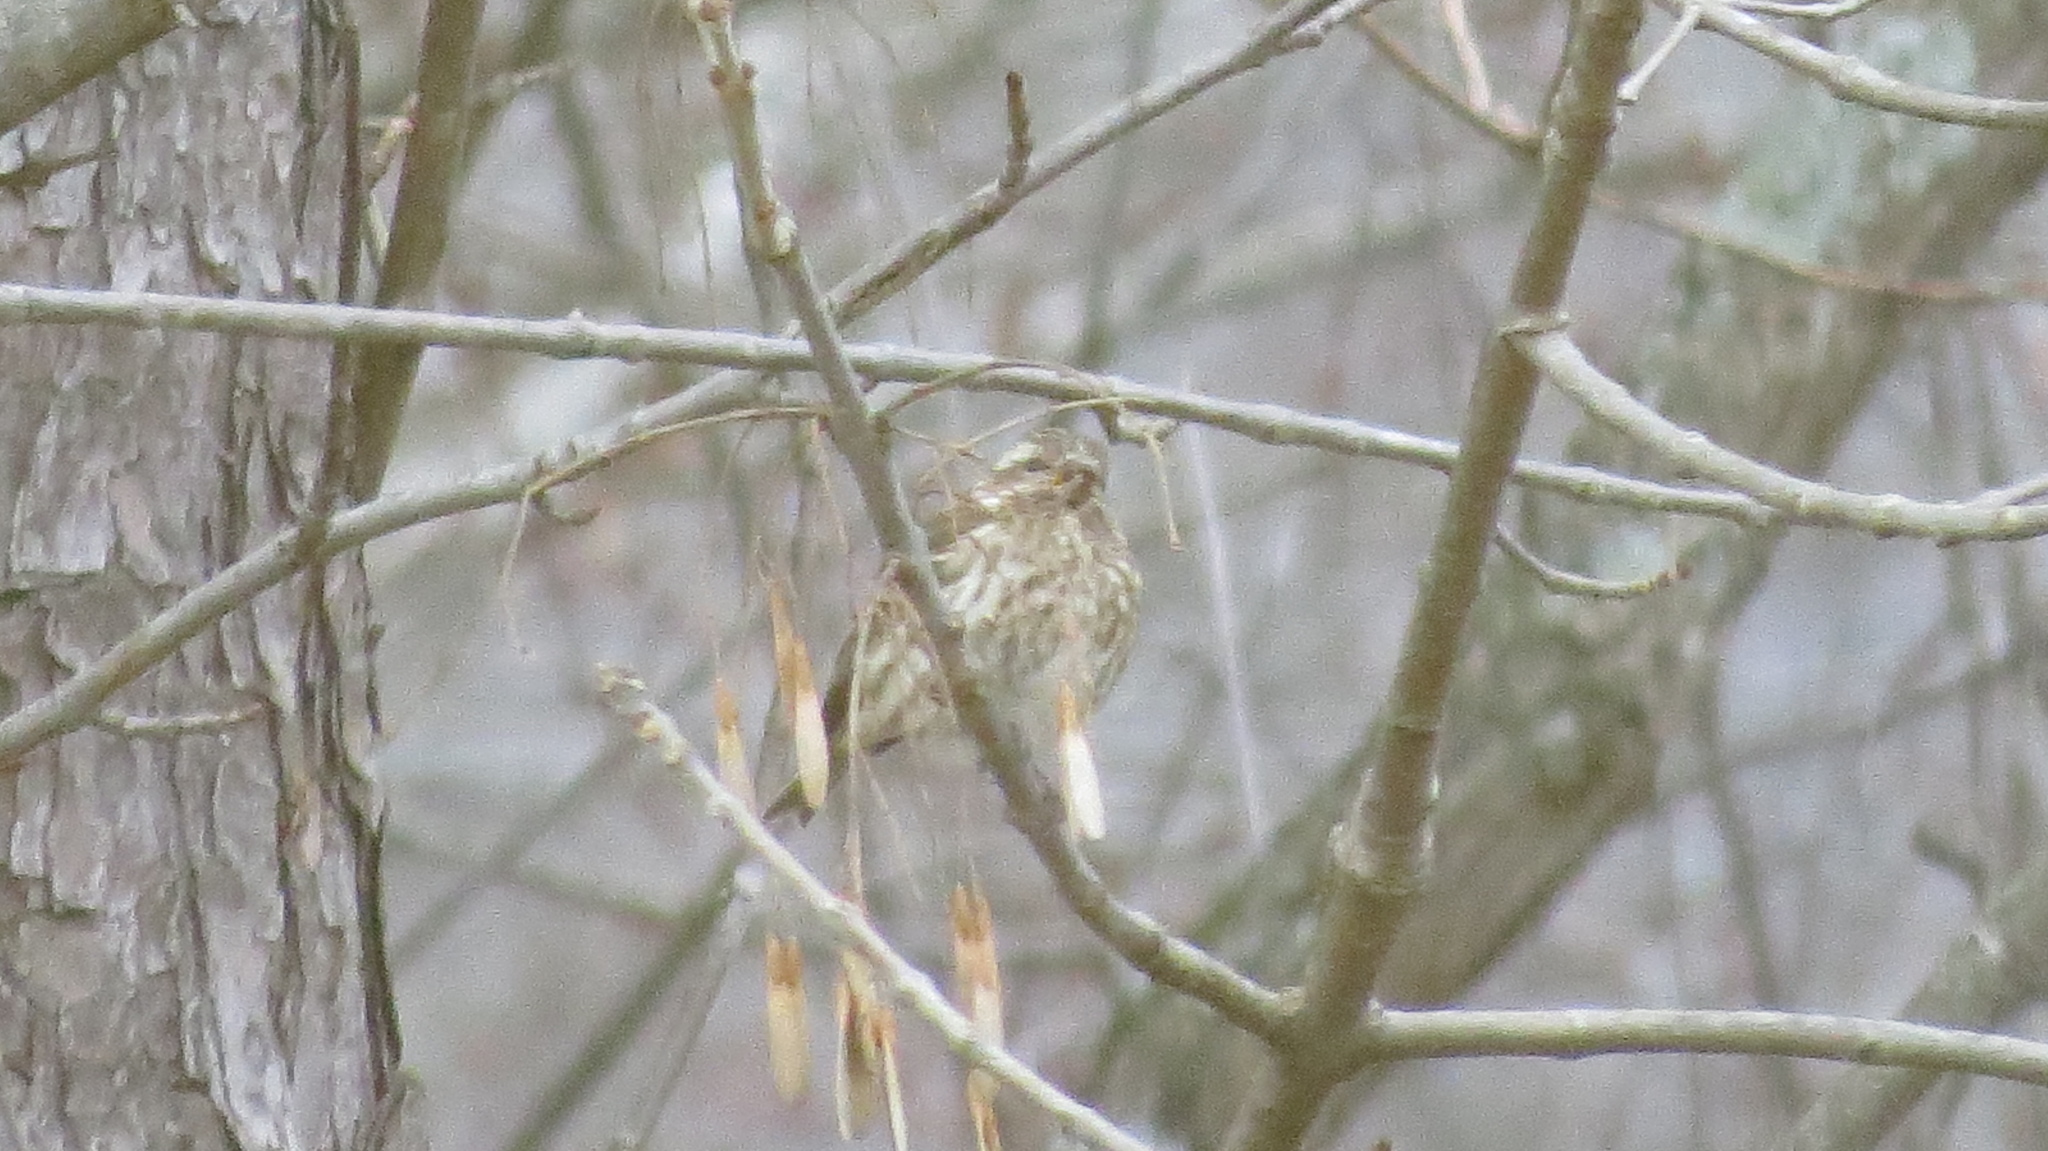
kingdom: Animalia
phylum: Chordata
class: Aves
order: Passeriformes
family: Fringillidae
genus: Haemorhous
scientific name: Haemorhous purpureus
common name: Purple finch
